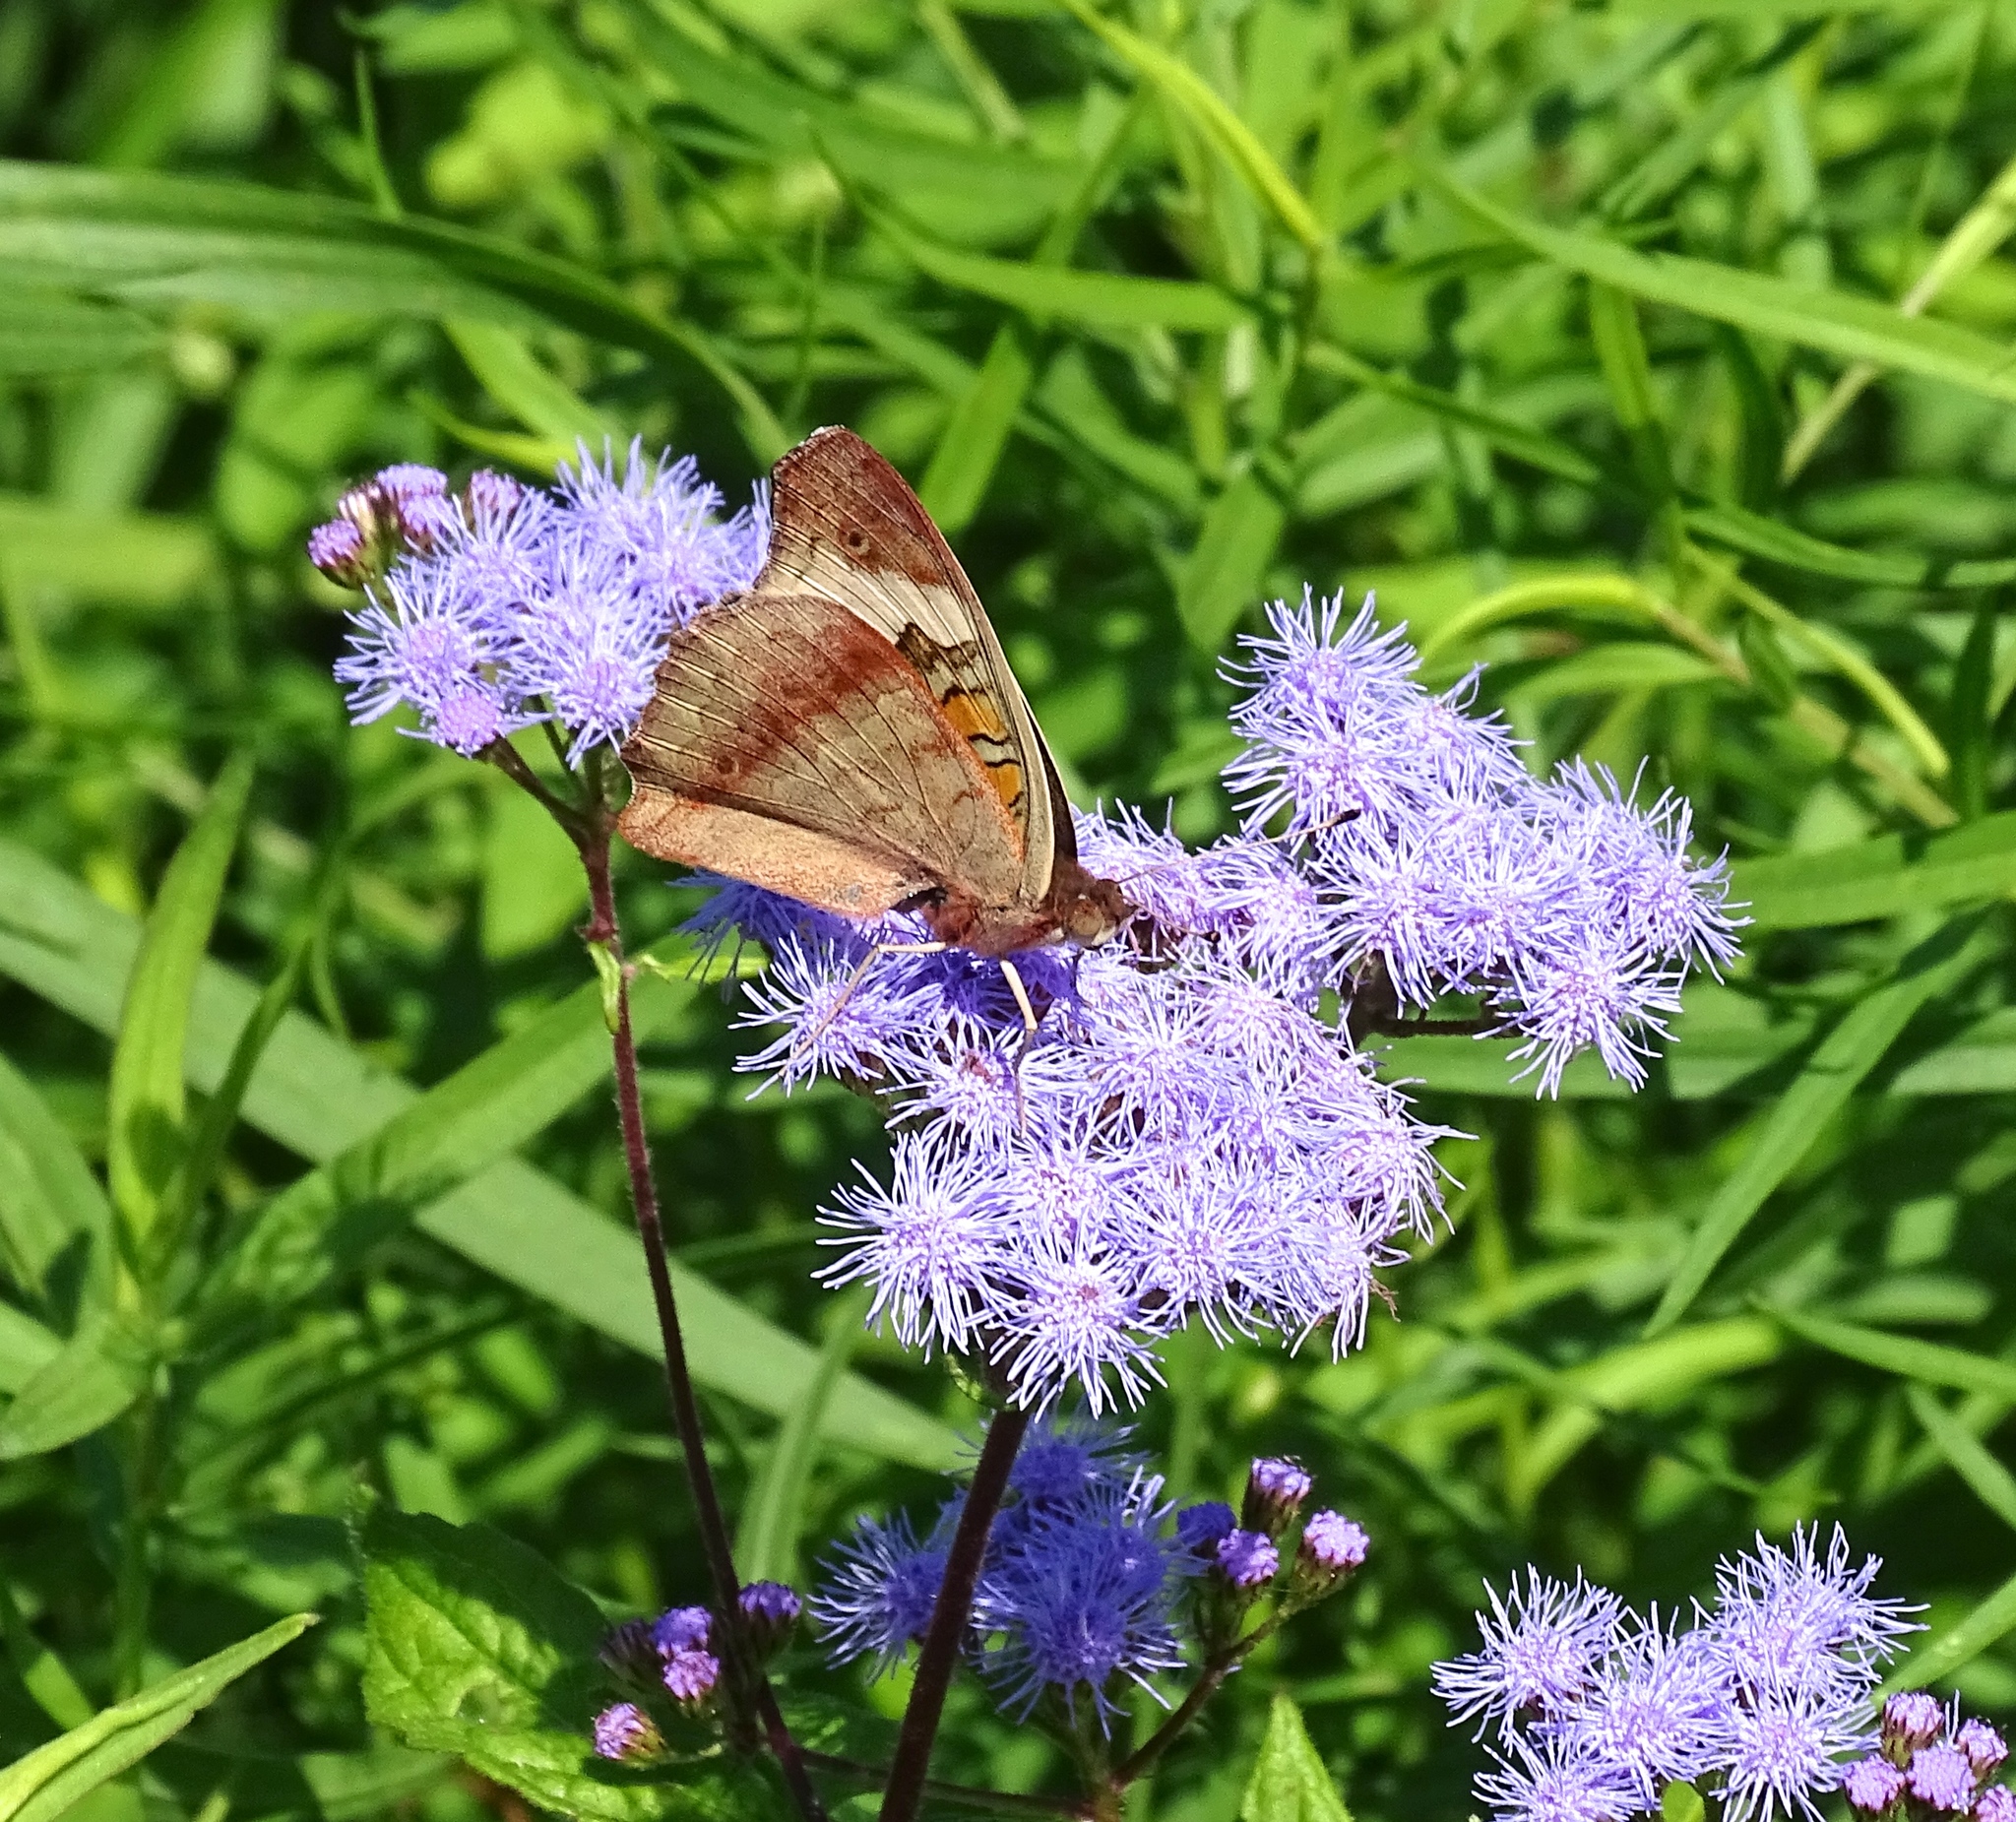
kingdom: Animalia
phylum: Arthropoda
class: Insecta
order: Lepidoptera
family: Nymphalidae
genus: Junonia
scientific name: Junonia coenia
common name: Common buckeye
